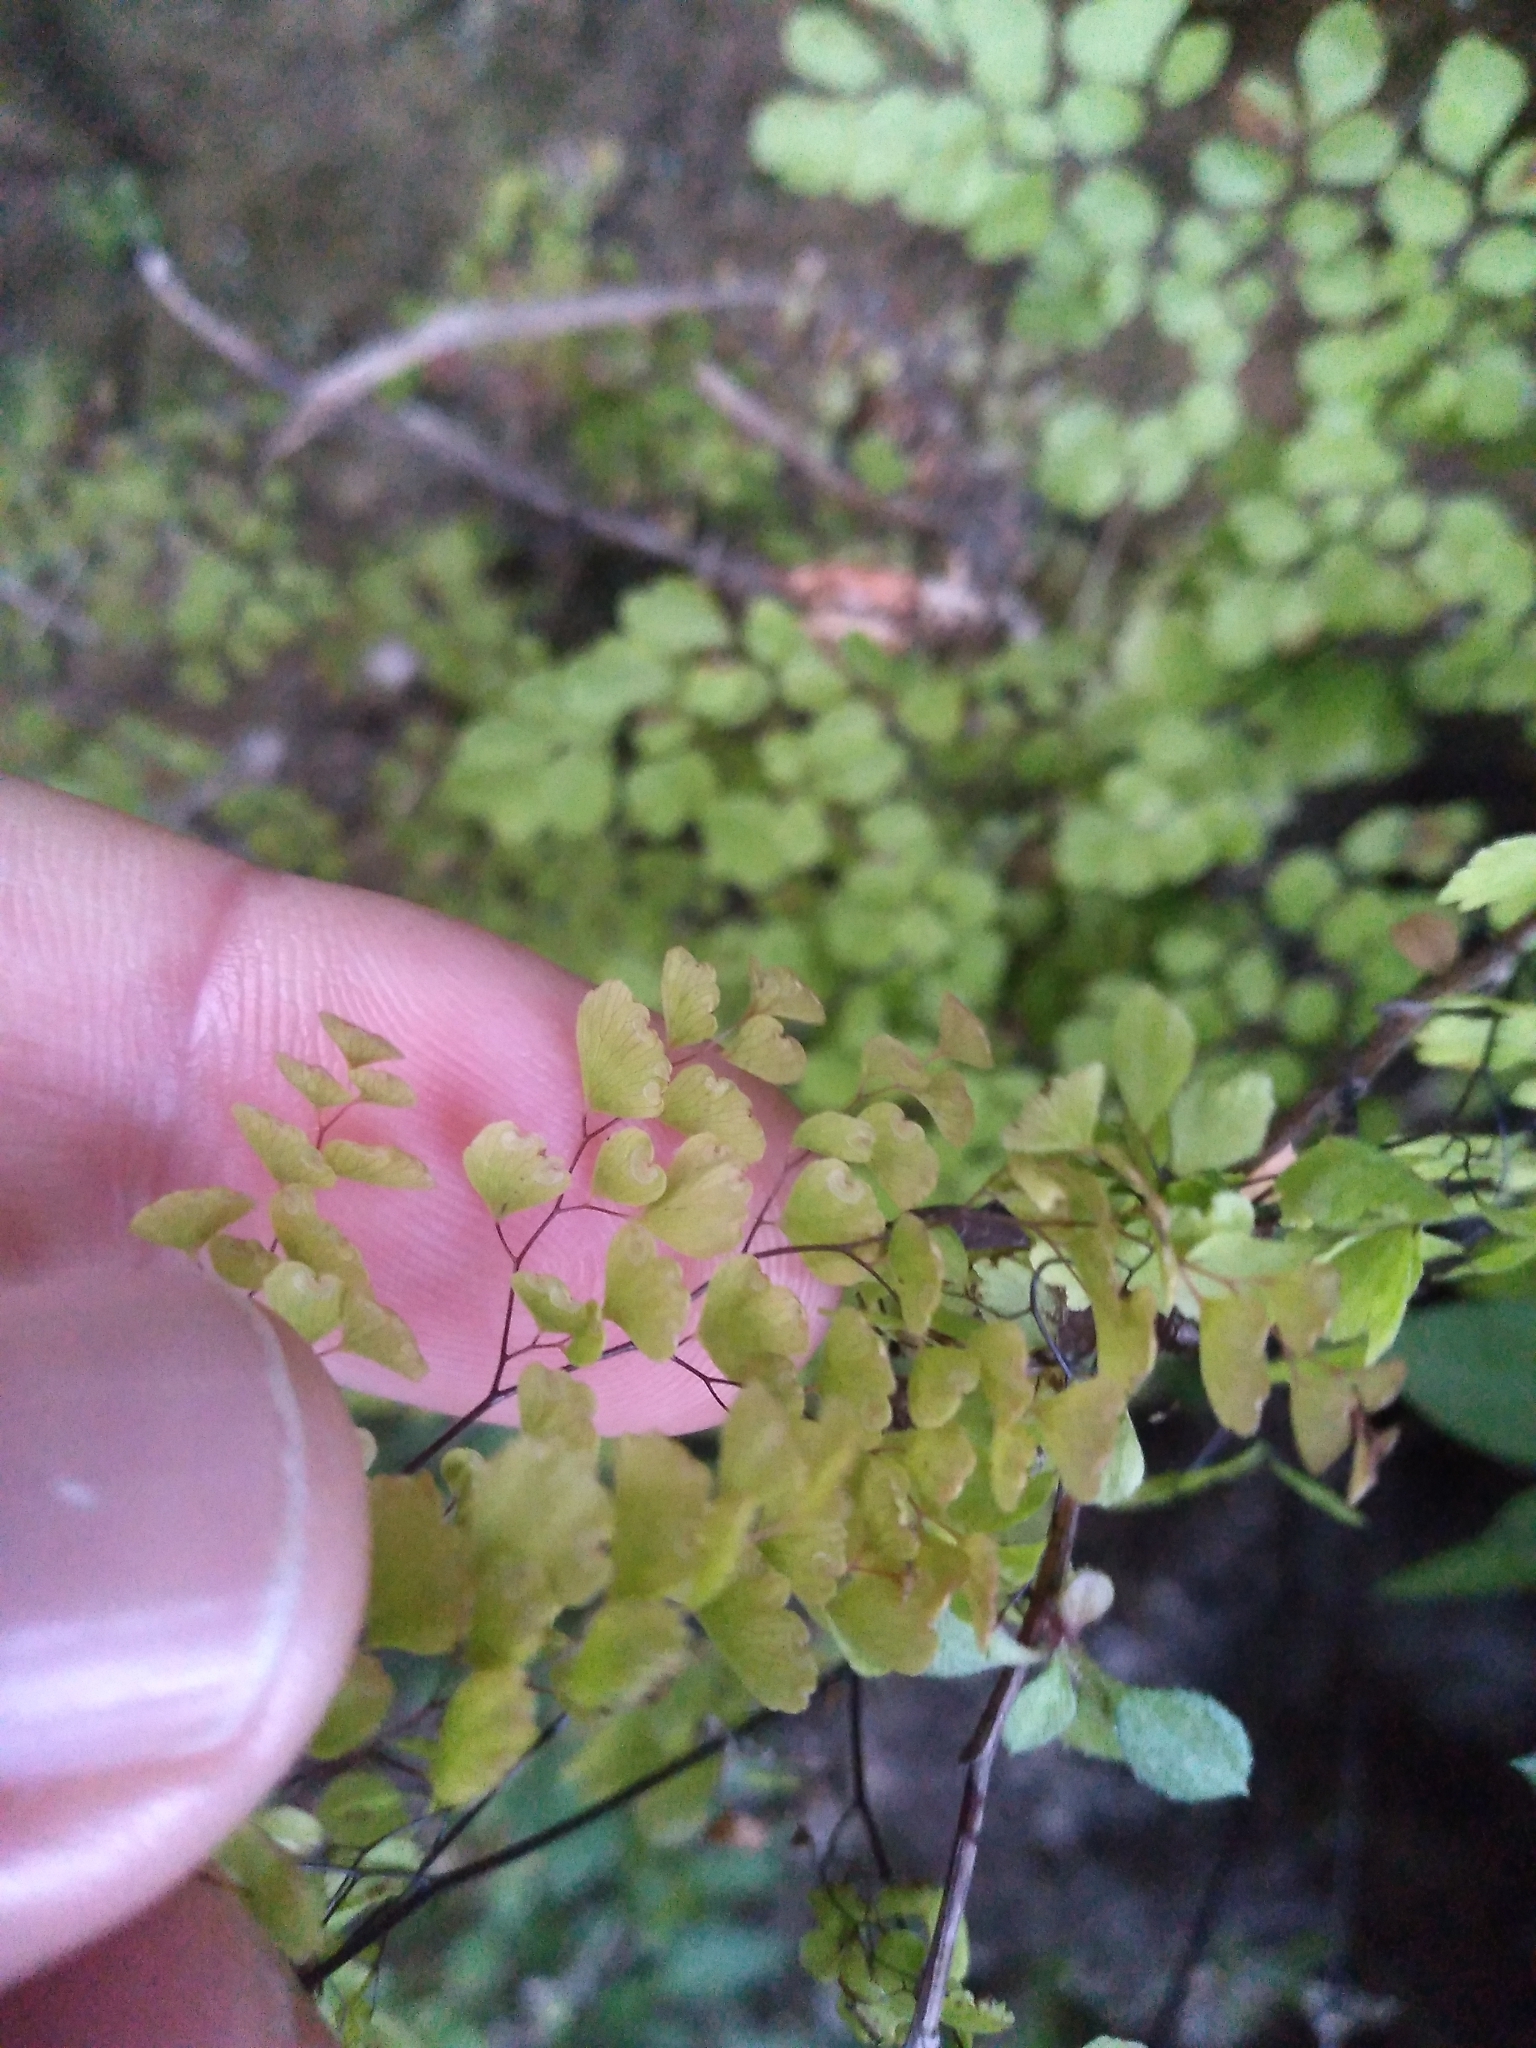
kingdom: Plantae
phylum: Tracheophyta
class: Polypodiopsida
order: Polypodiales
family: Pteridaceae
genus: Adiantum
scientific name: Adiantum raddianum
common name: Delta maidenhair fern
